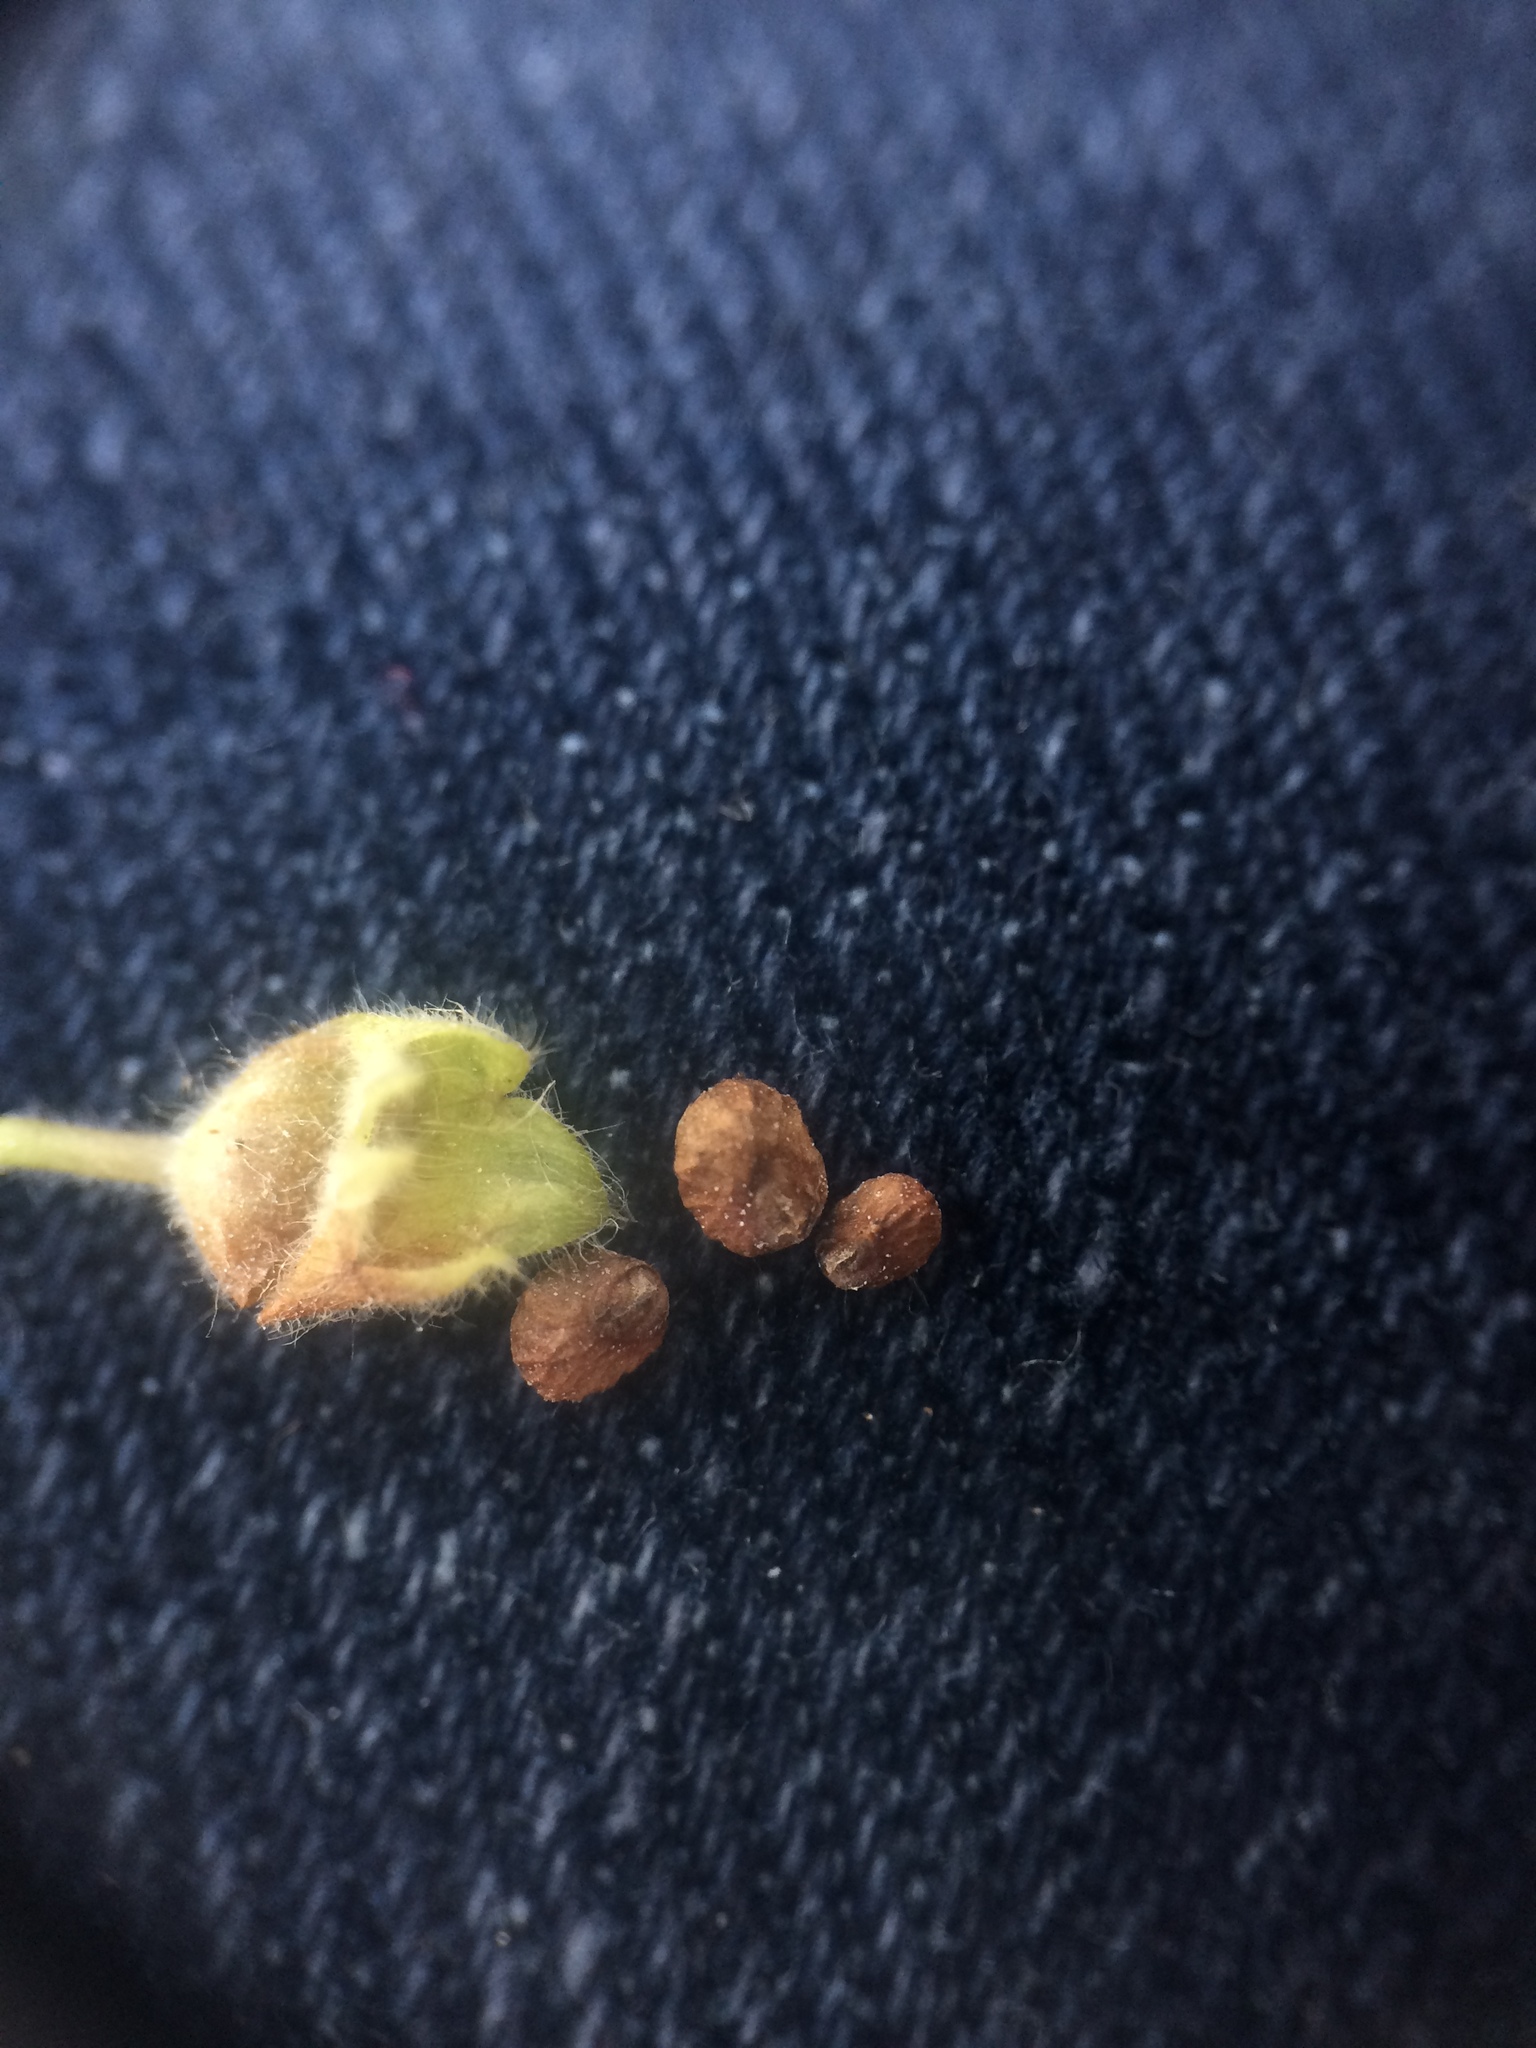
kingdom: Plantae
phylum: Tracheophyta
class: Magnoliopsida
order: Lamiales
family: Lamiaceae
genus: Teucrium
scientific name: Teucrium canadense
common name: American germander
